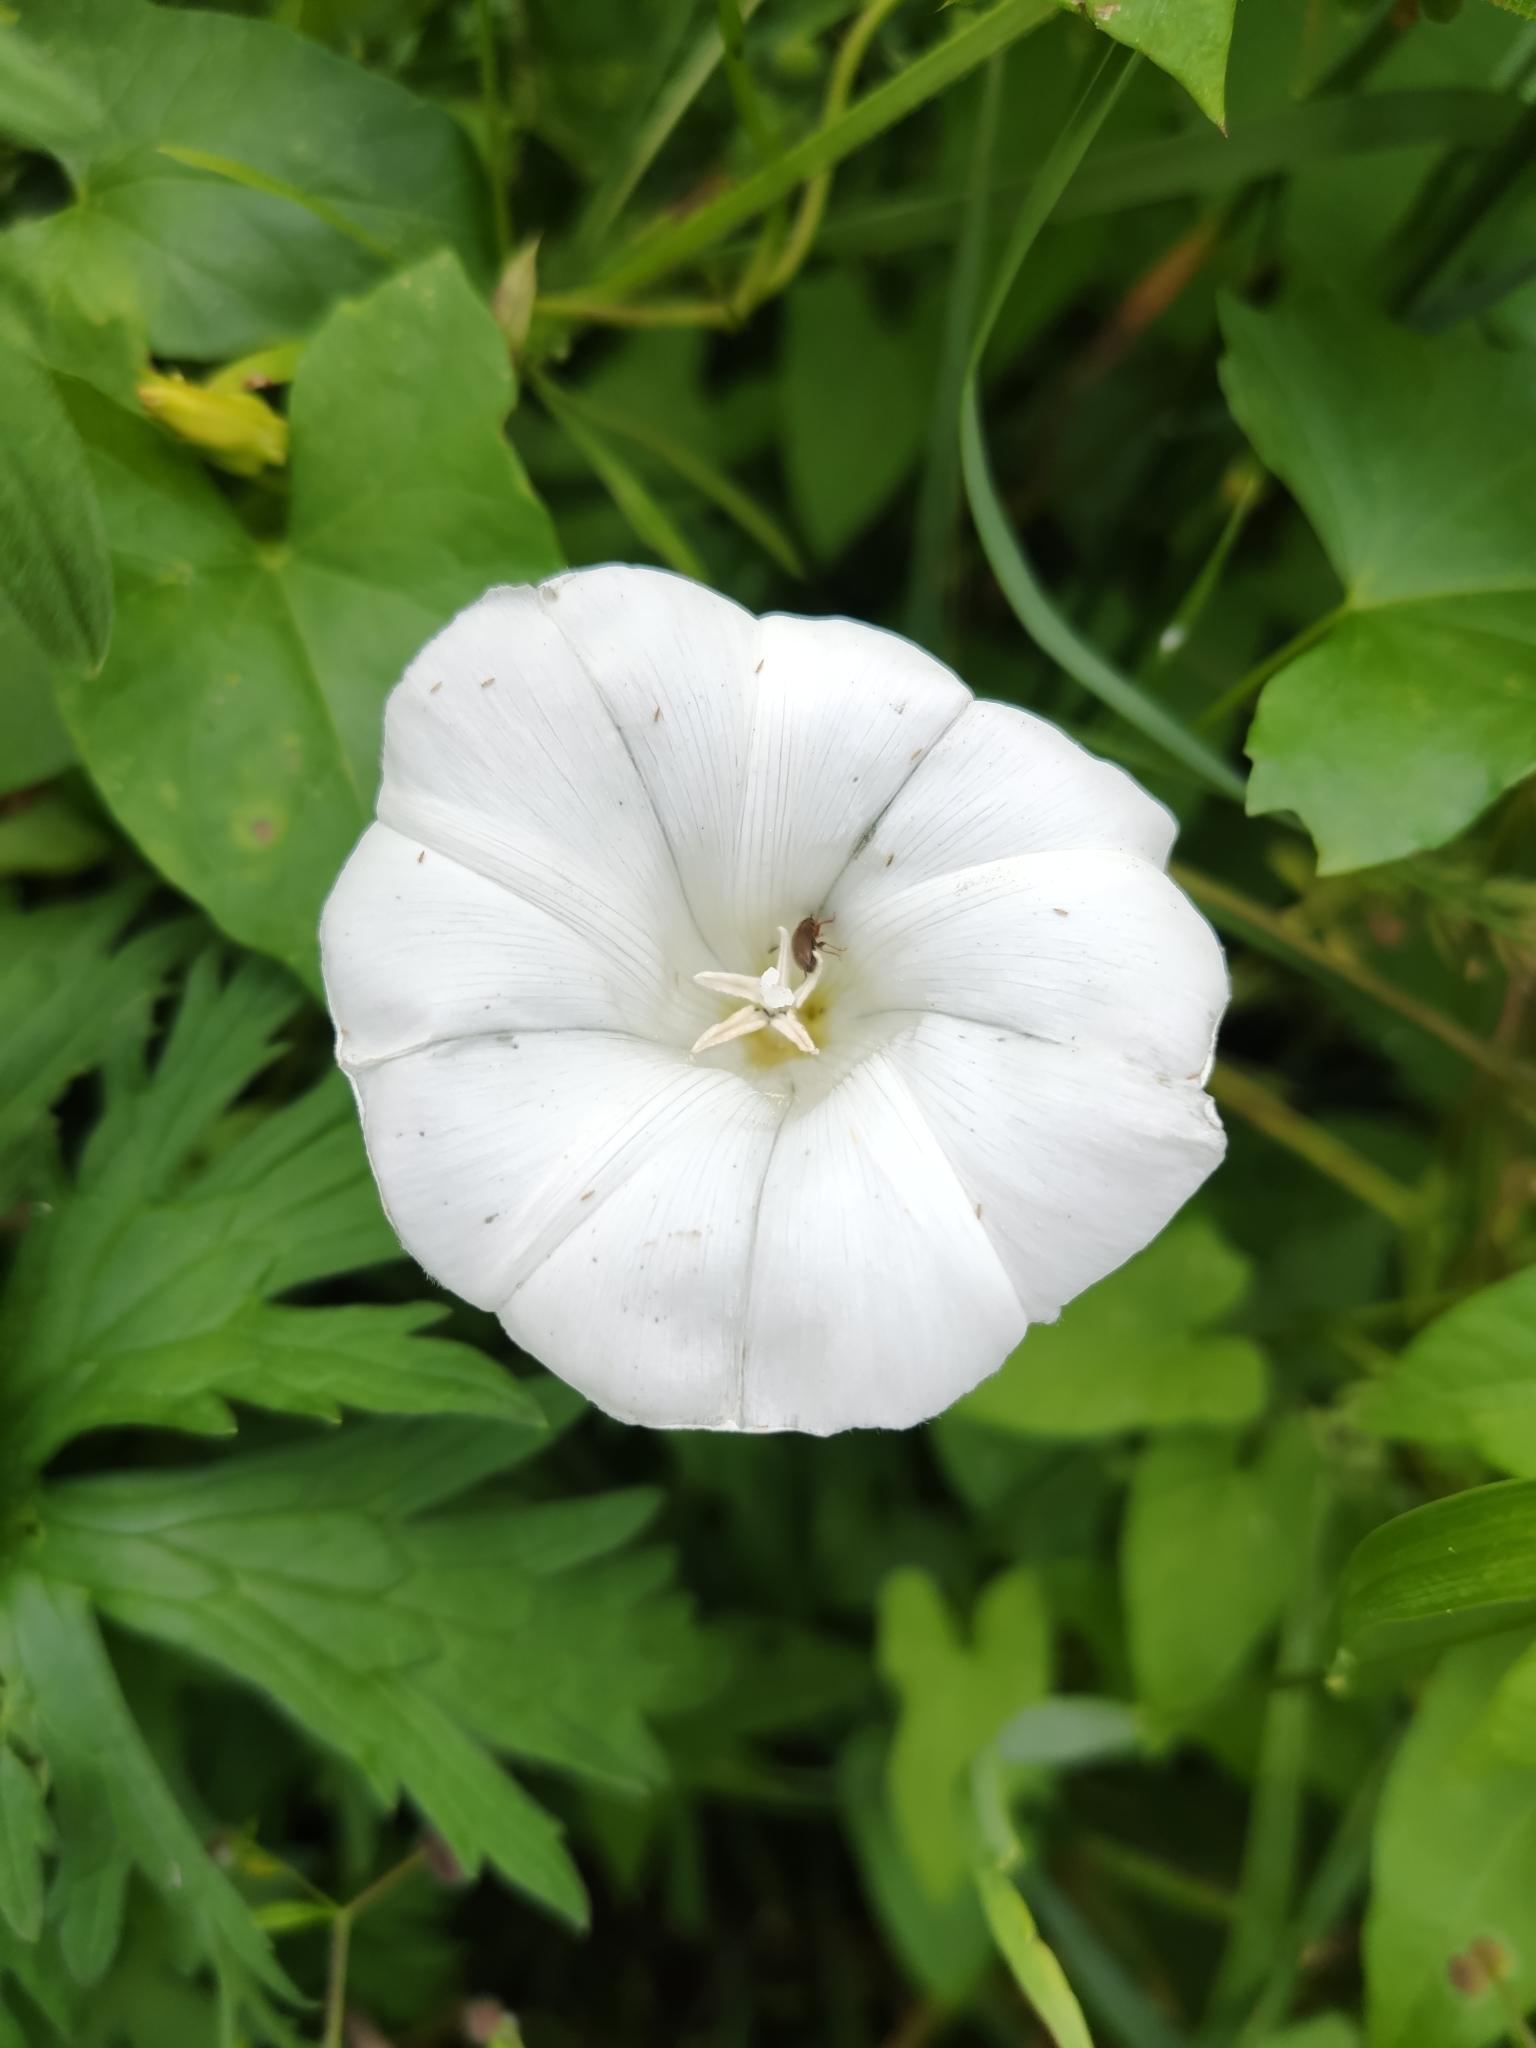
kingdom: Plantae
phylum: Tracheophyta
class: Magnoliopsida
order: Solanales
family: Convolvulaceae
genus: Calystegia
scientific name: Calystegia sepium
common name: Hedge bindweed
